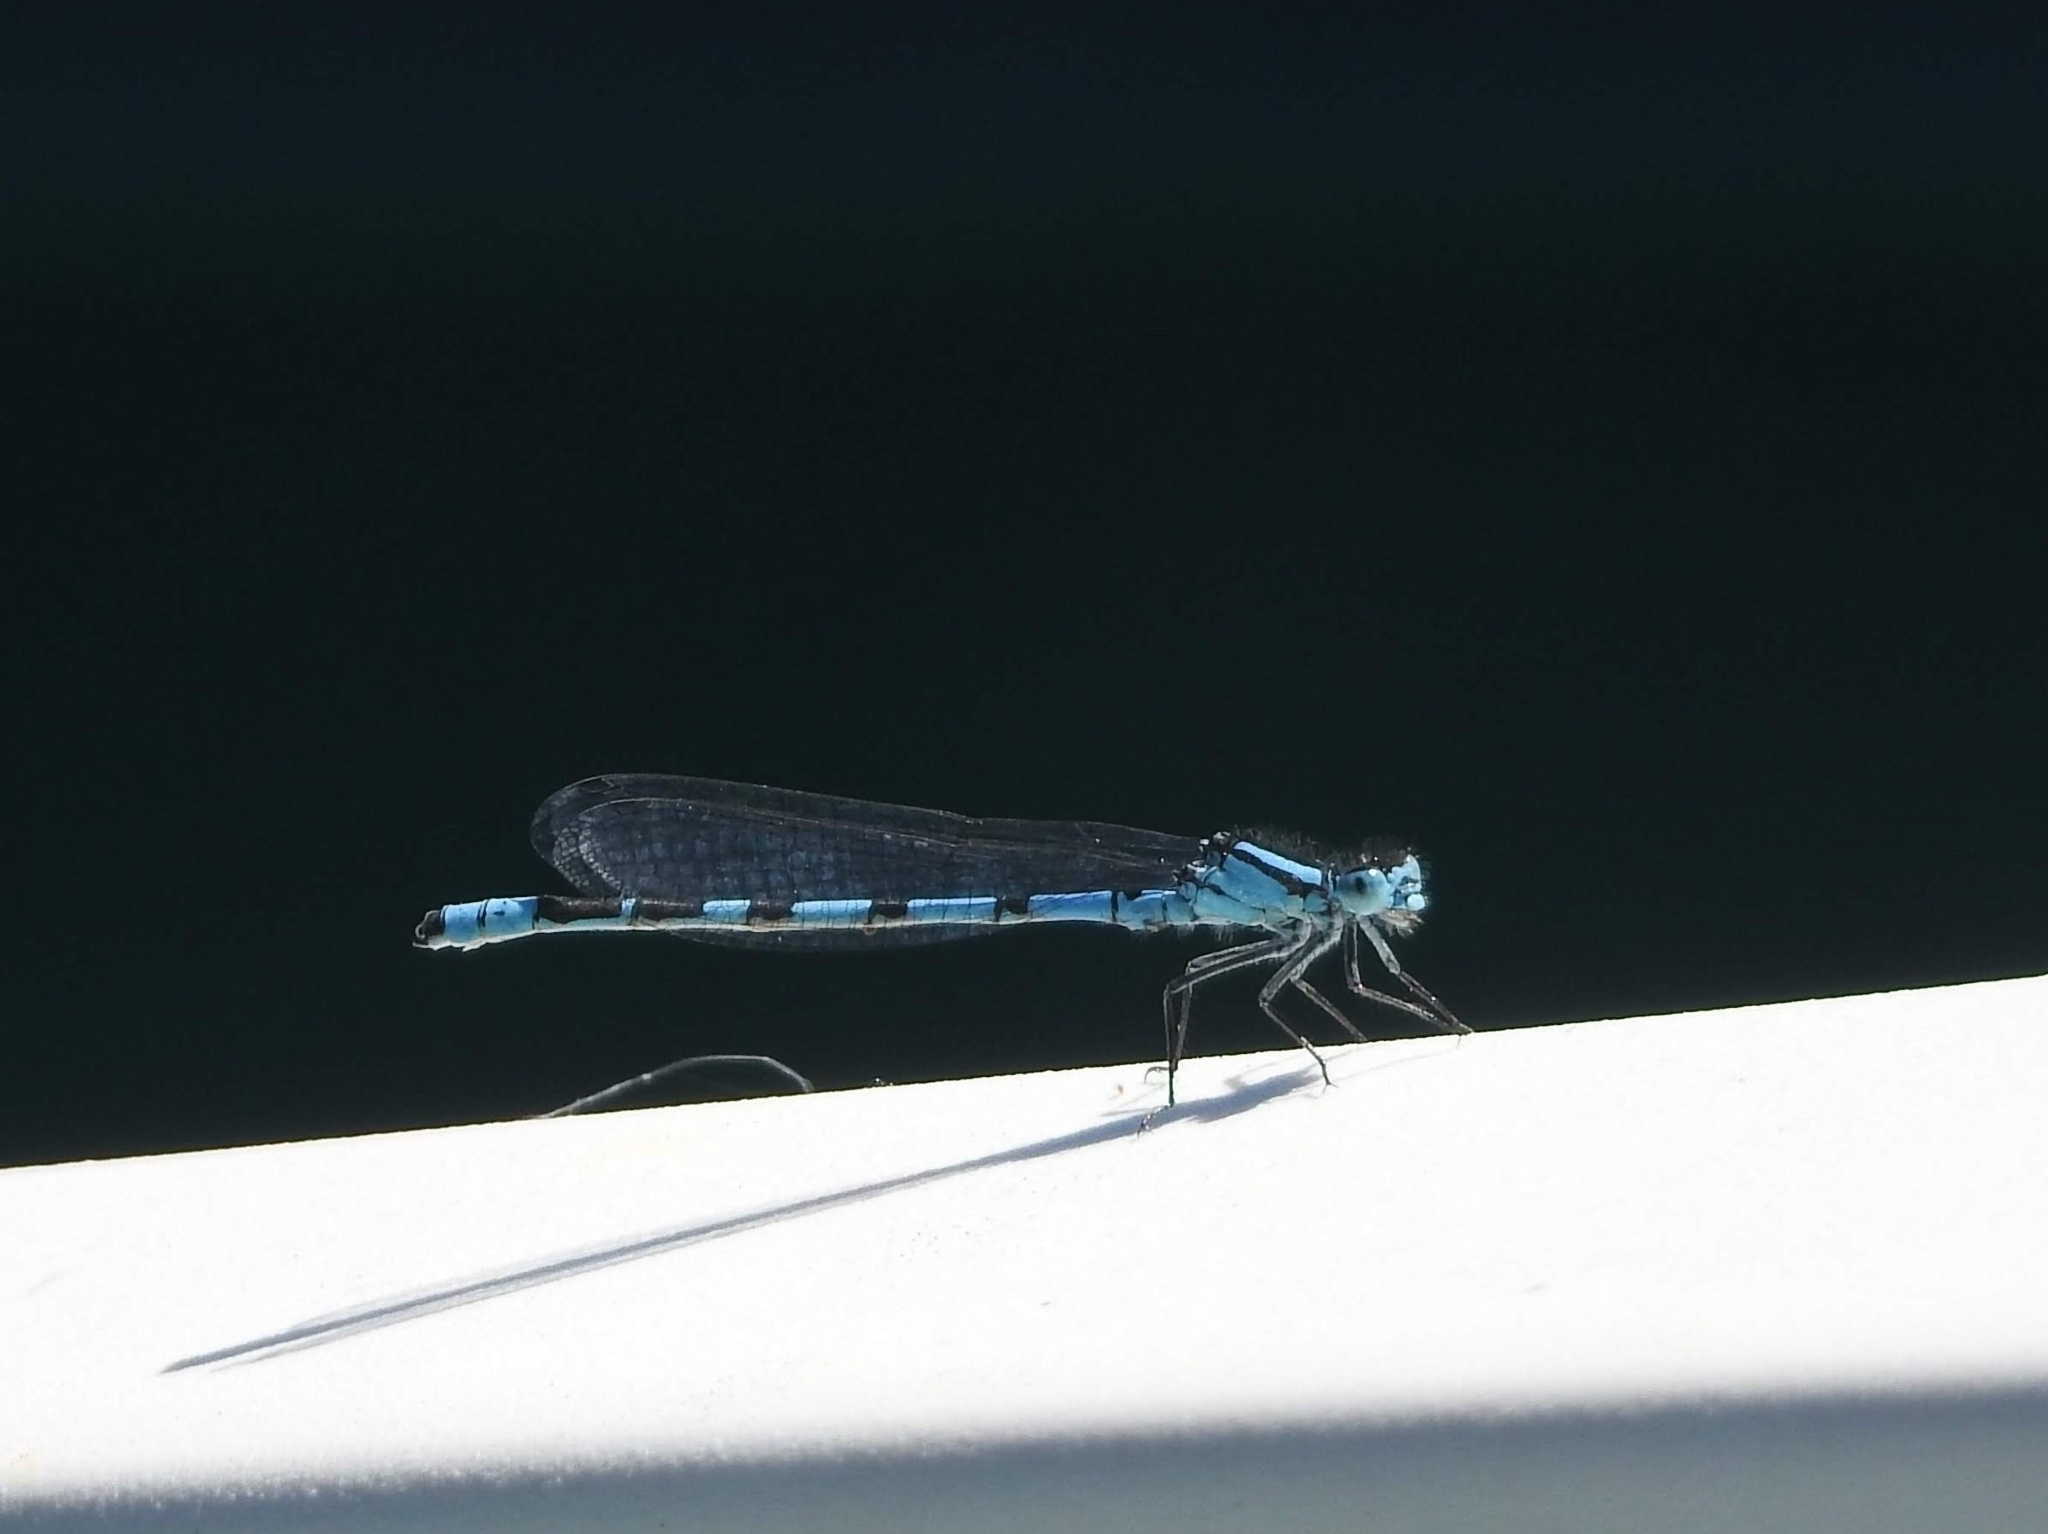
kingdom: Animalia
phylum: Arthropoda
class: Insecta
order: Odonata
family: Coenagrionidae
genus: Enallagma
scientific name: Enallagma cyathigerum
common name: Common blue damselfly
